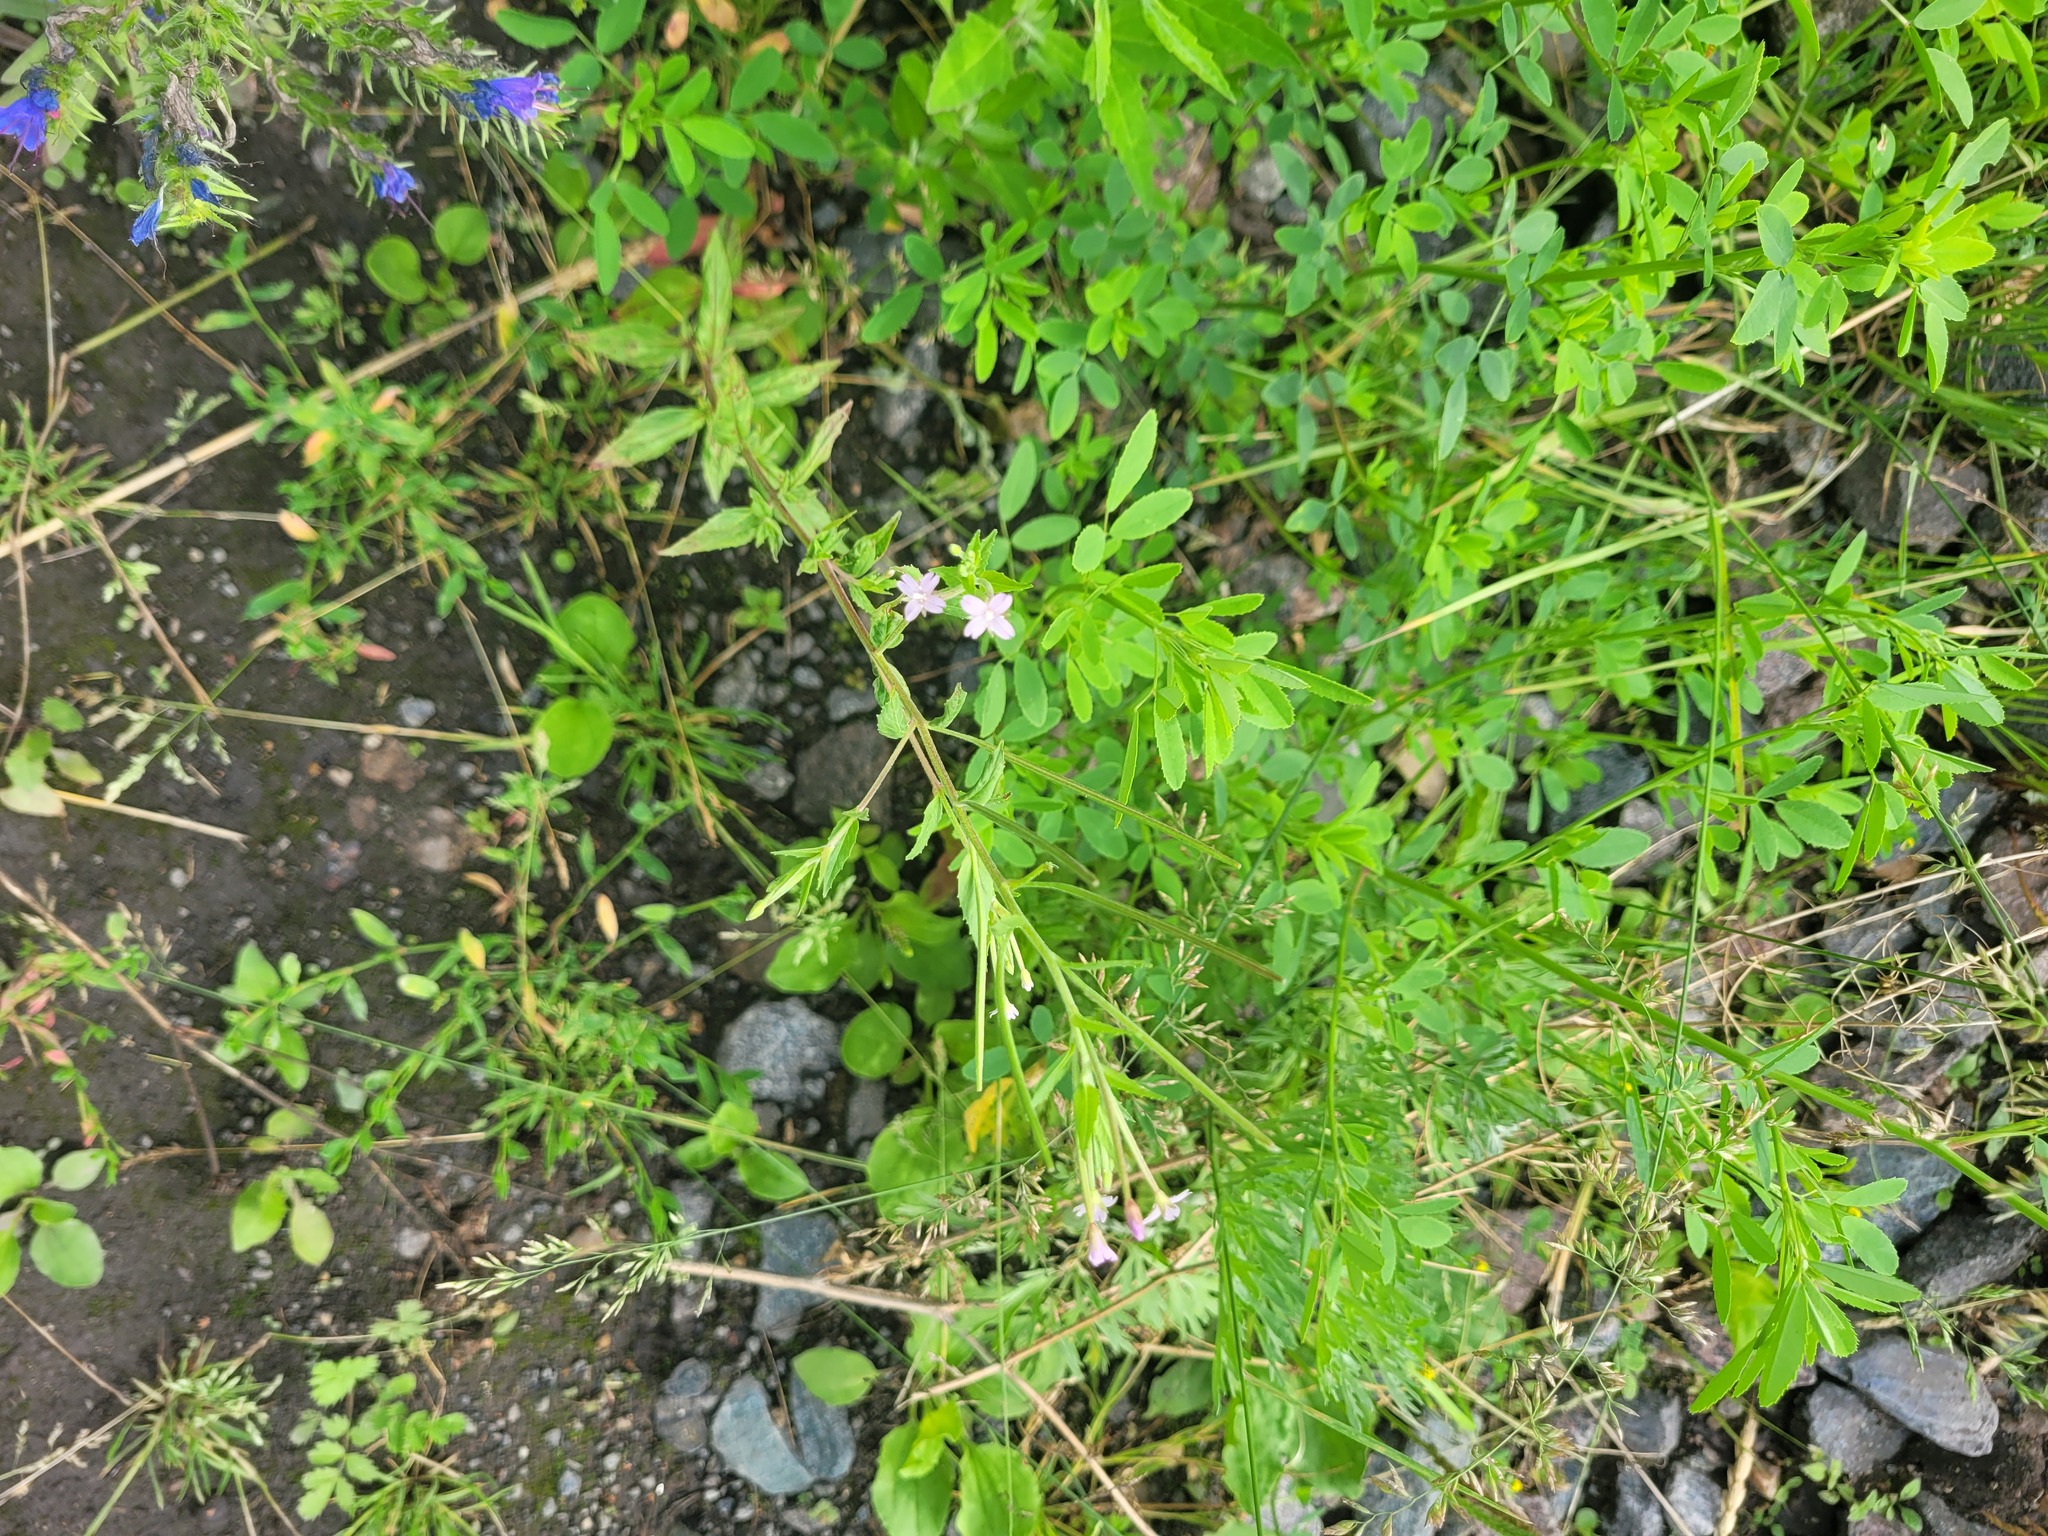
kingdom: Plantae
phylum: Tracheophyta
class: Magnoliopsida
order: Myrtales
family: Onagraceae
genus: Epilobium
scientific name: Epilobium ciliatum
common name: American willowherb
